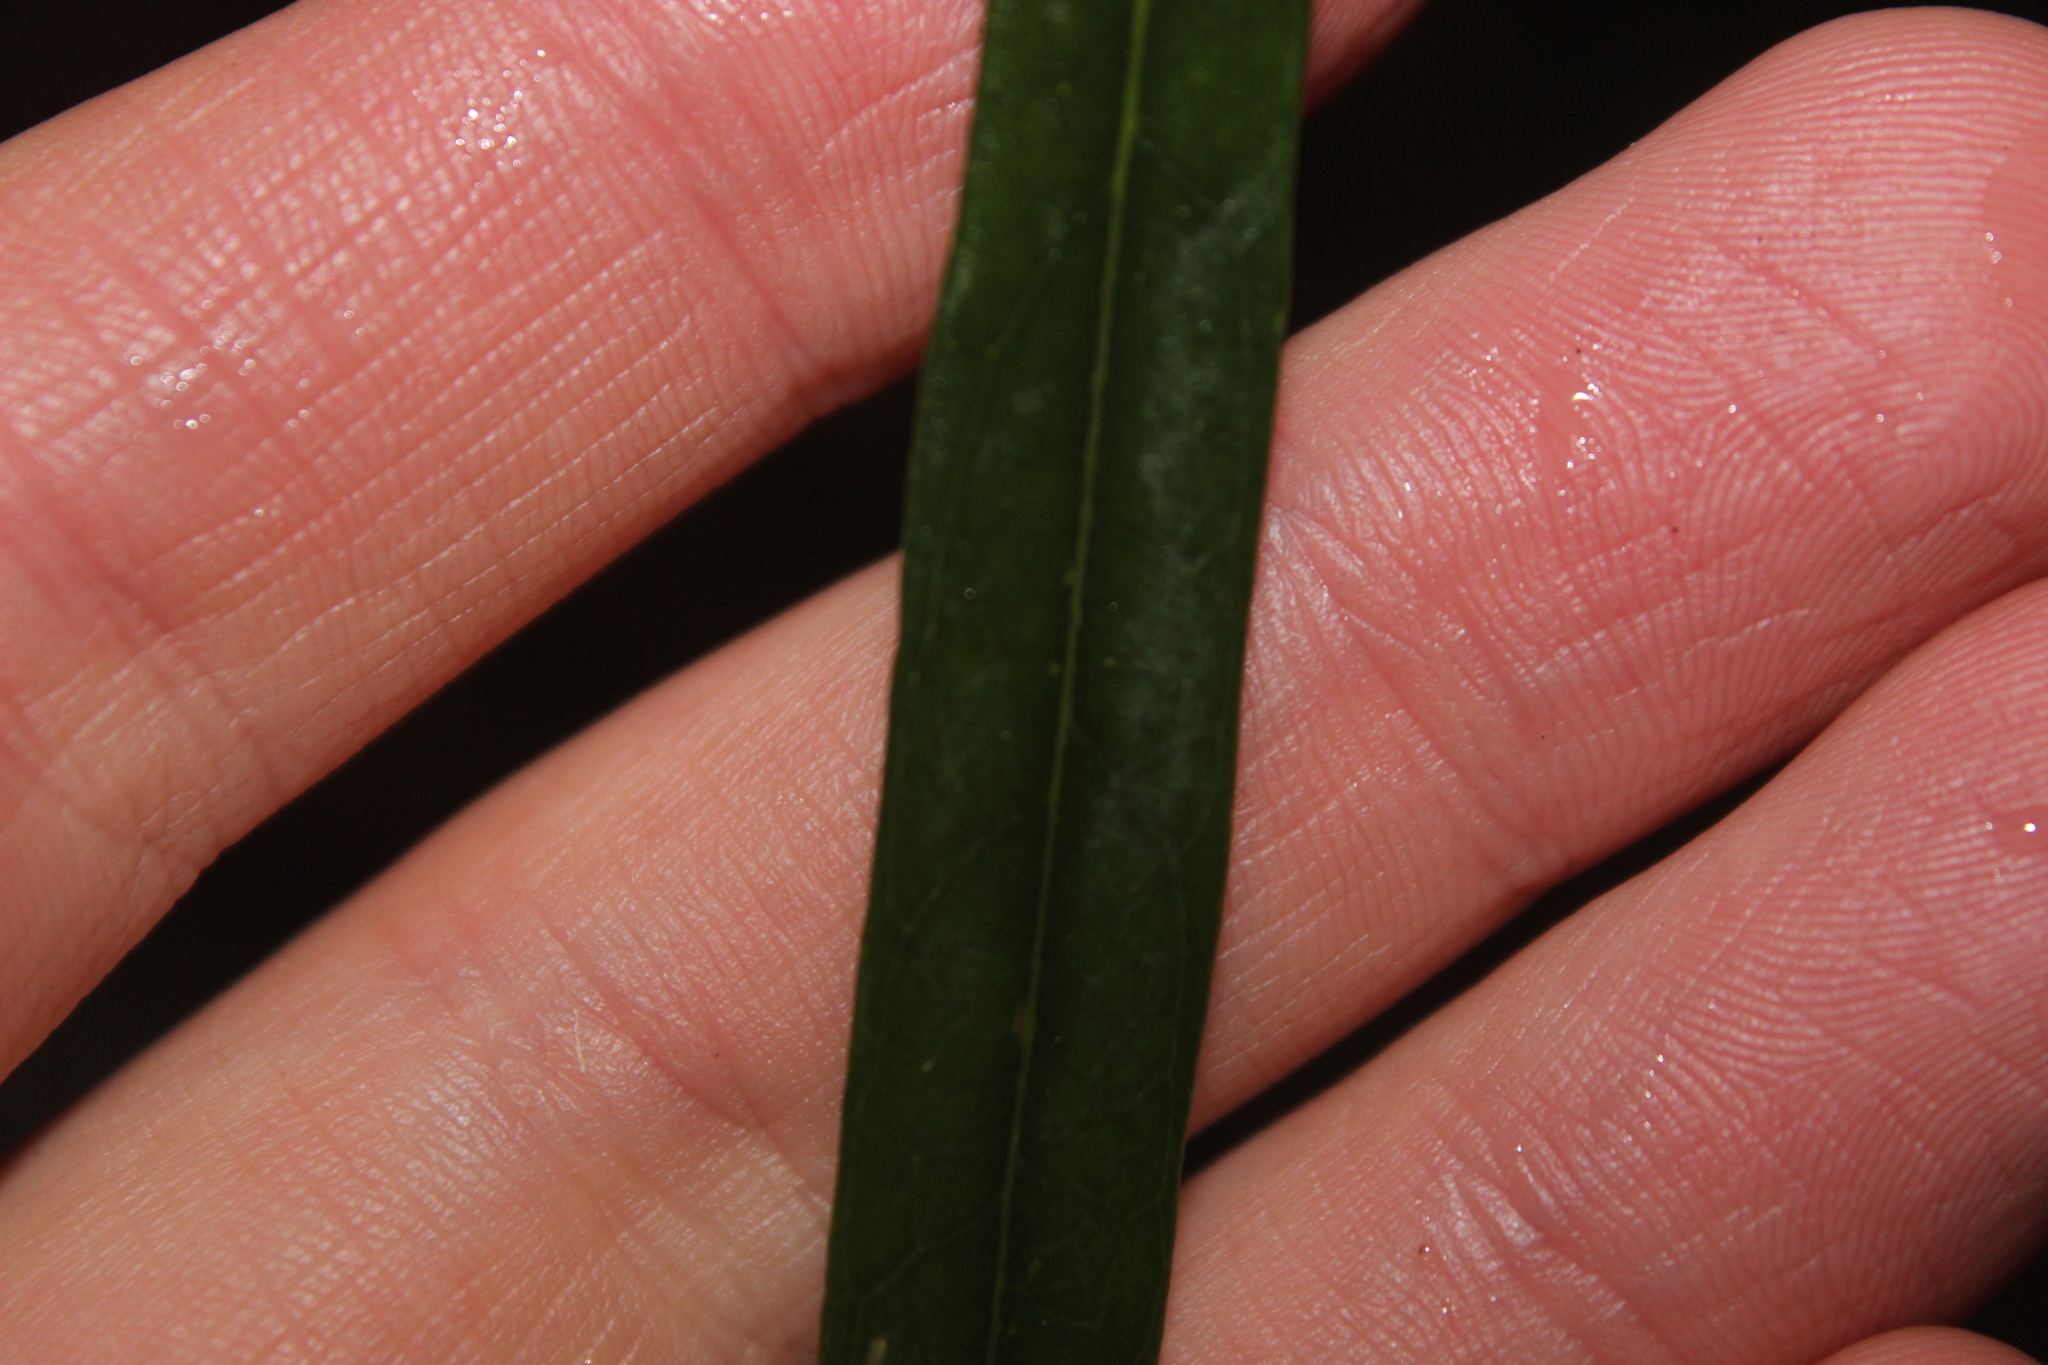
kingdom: Plantae
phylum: Tracheophyta
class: Magnoliopsida
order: Lamiales
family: Oleaceae
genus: Nestegis
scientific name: Nestegis cunninghamii
